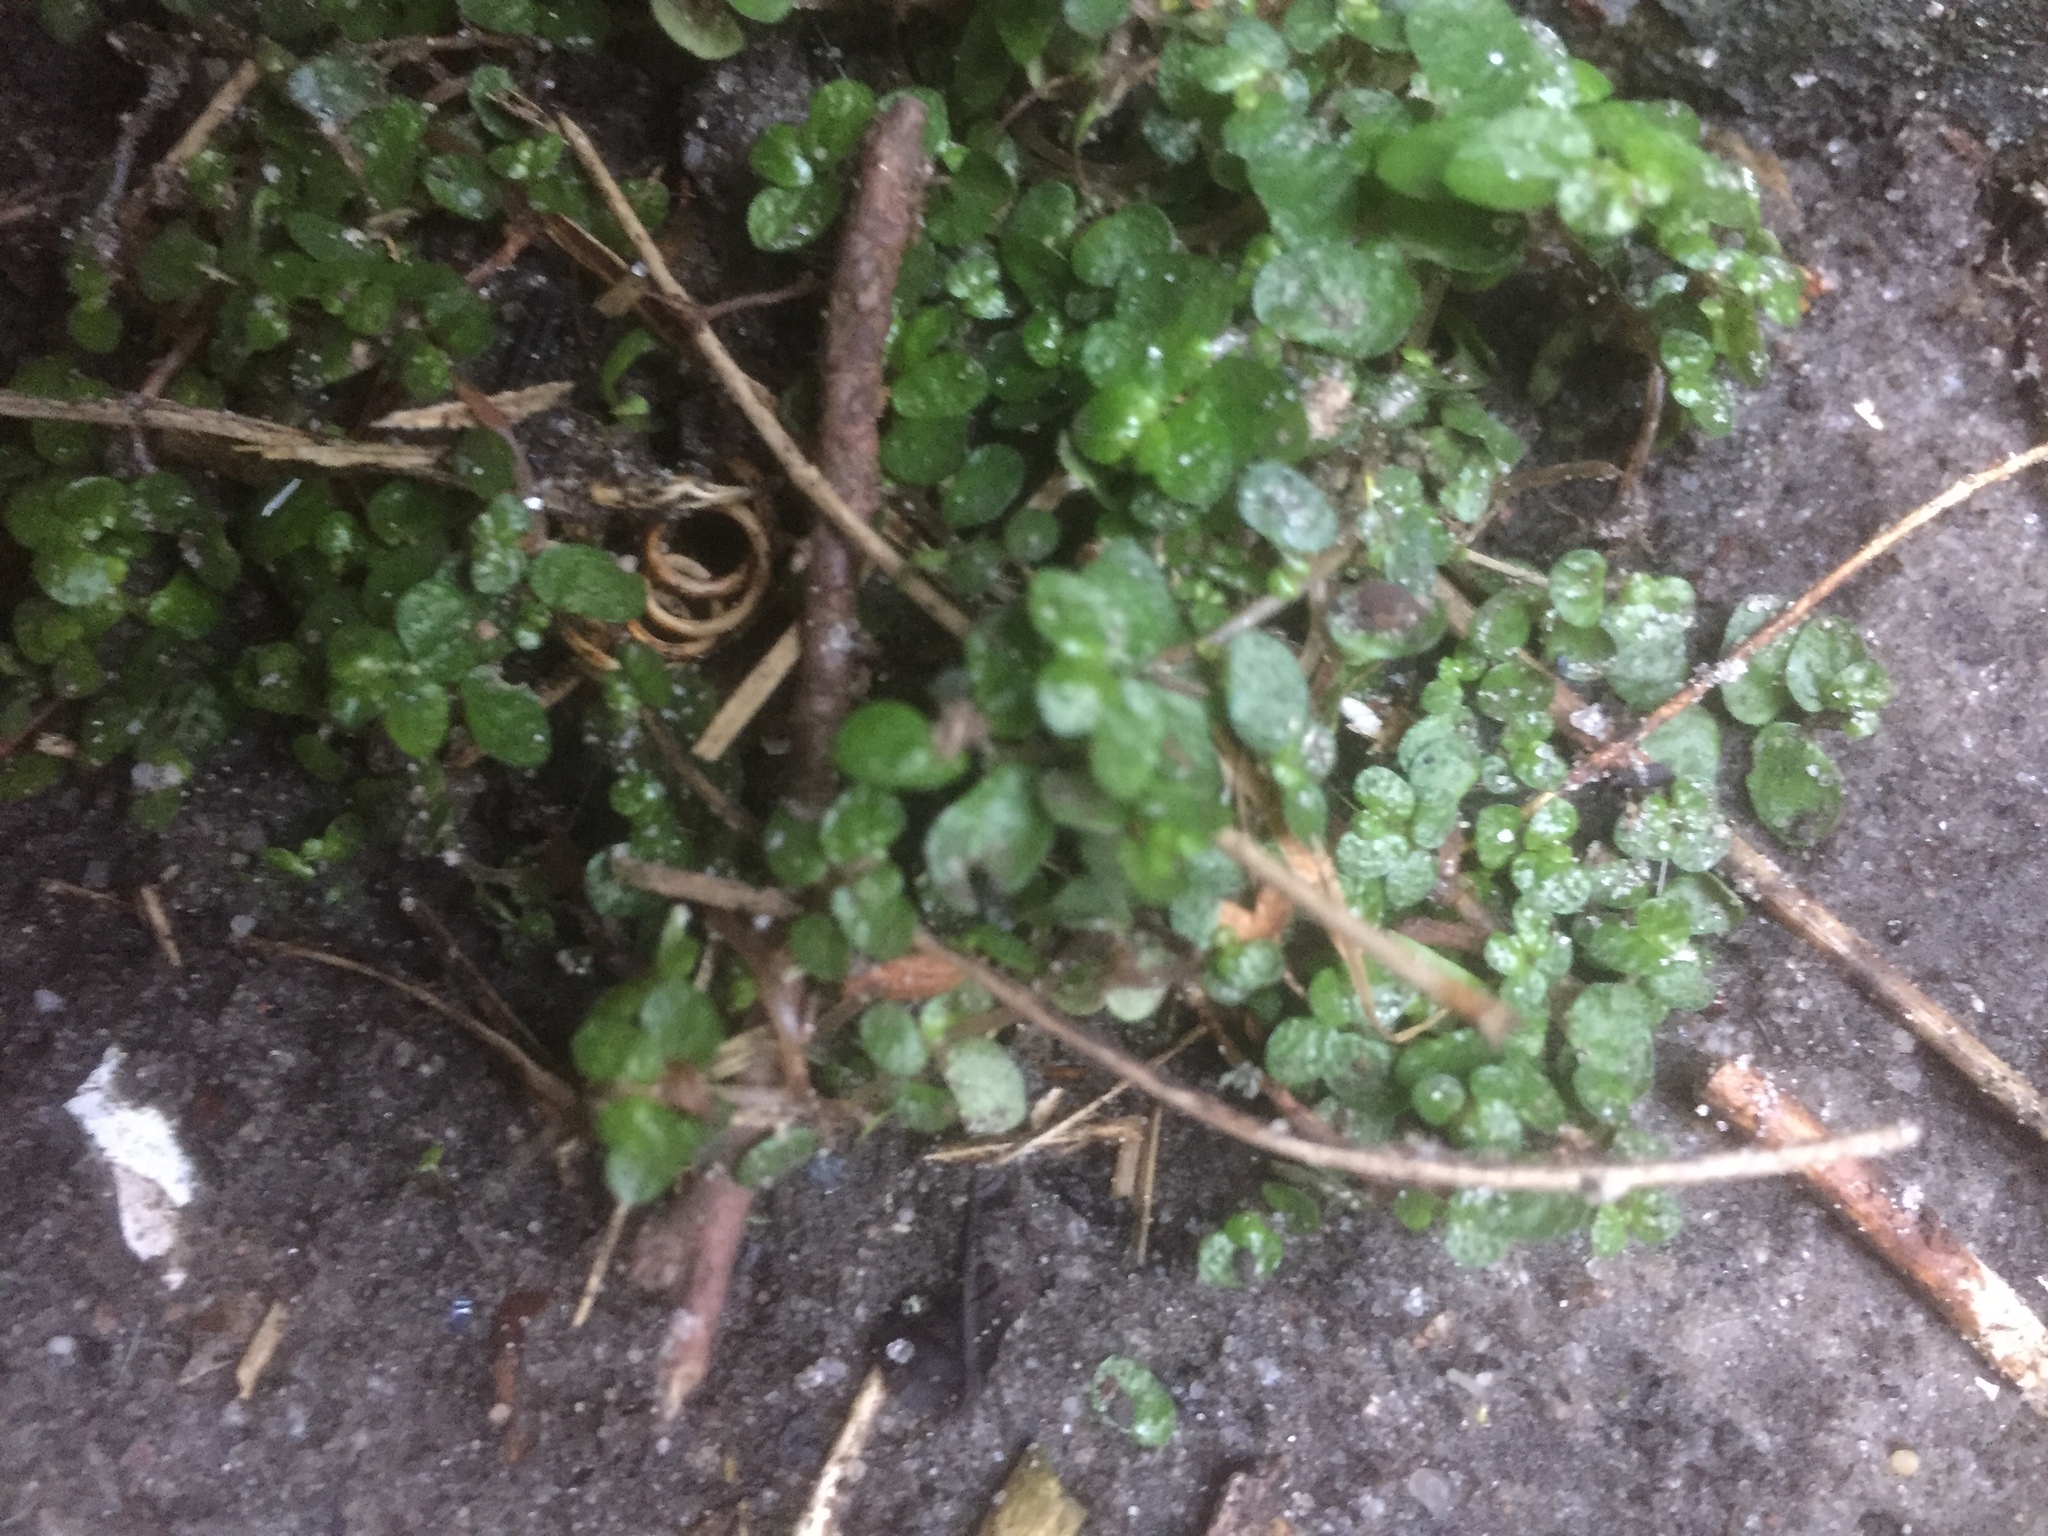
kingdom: Plantae
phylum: Tracheophyta
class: Magnoliopsida
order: Rosales
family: Urticaceae
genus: Soleirolia
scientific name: Soleirolia soleirolii
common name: Mind-your-own-business
